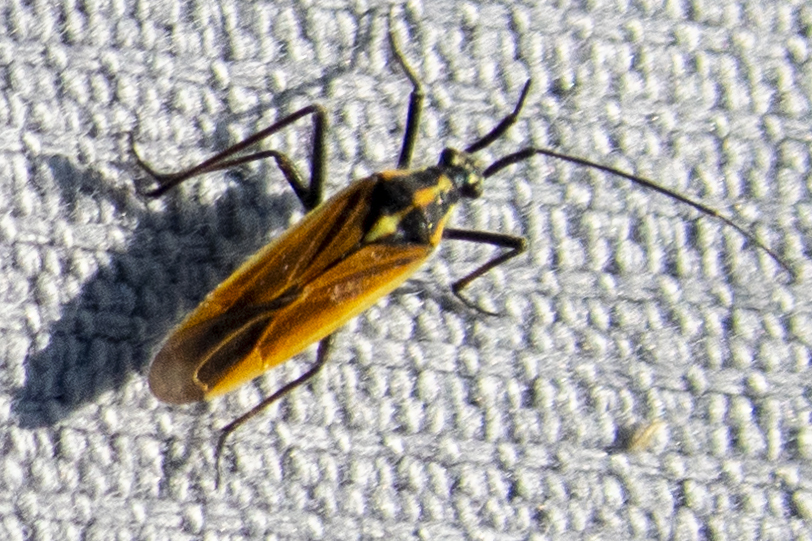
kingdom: Animalia
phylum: Arthropoda
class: Insecta
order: Hemiptera
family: Miridae
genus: Leptopterna
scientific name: Leptopterna dolabrata
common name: Meadow plant bug
